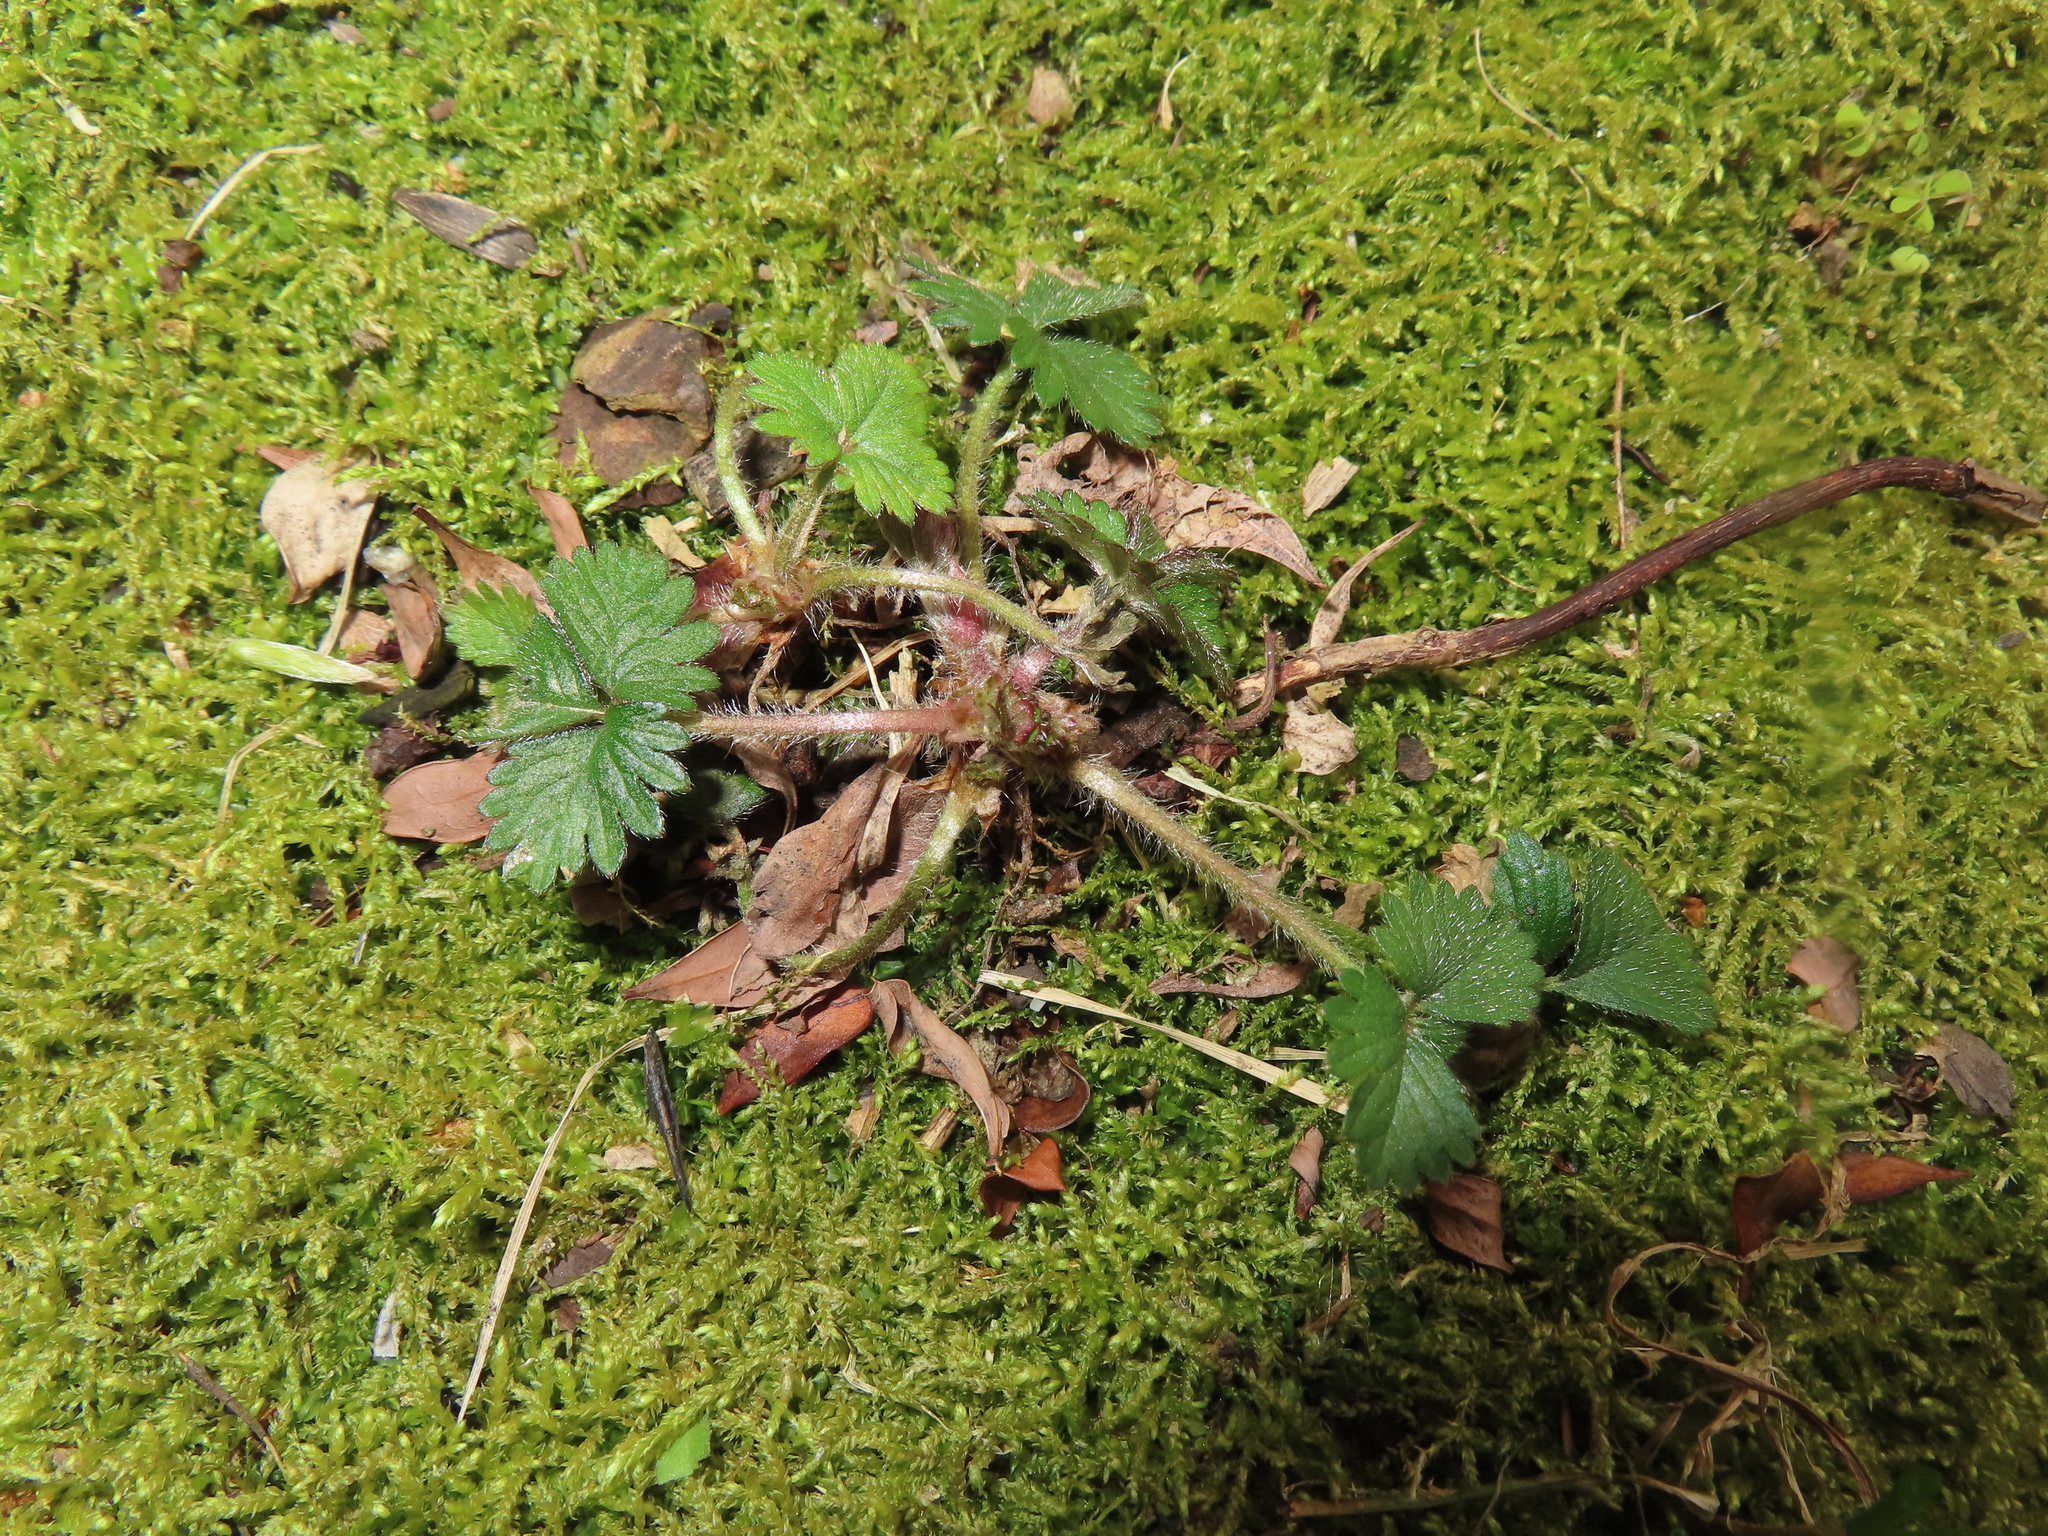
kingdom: Plantae
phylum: Tracheophyta
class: Magnoliopsida
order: Rosales
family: Rosaceae
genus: Potentilla
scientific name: Potentilla indica
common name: Yellow-flowered strawberry
